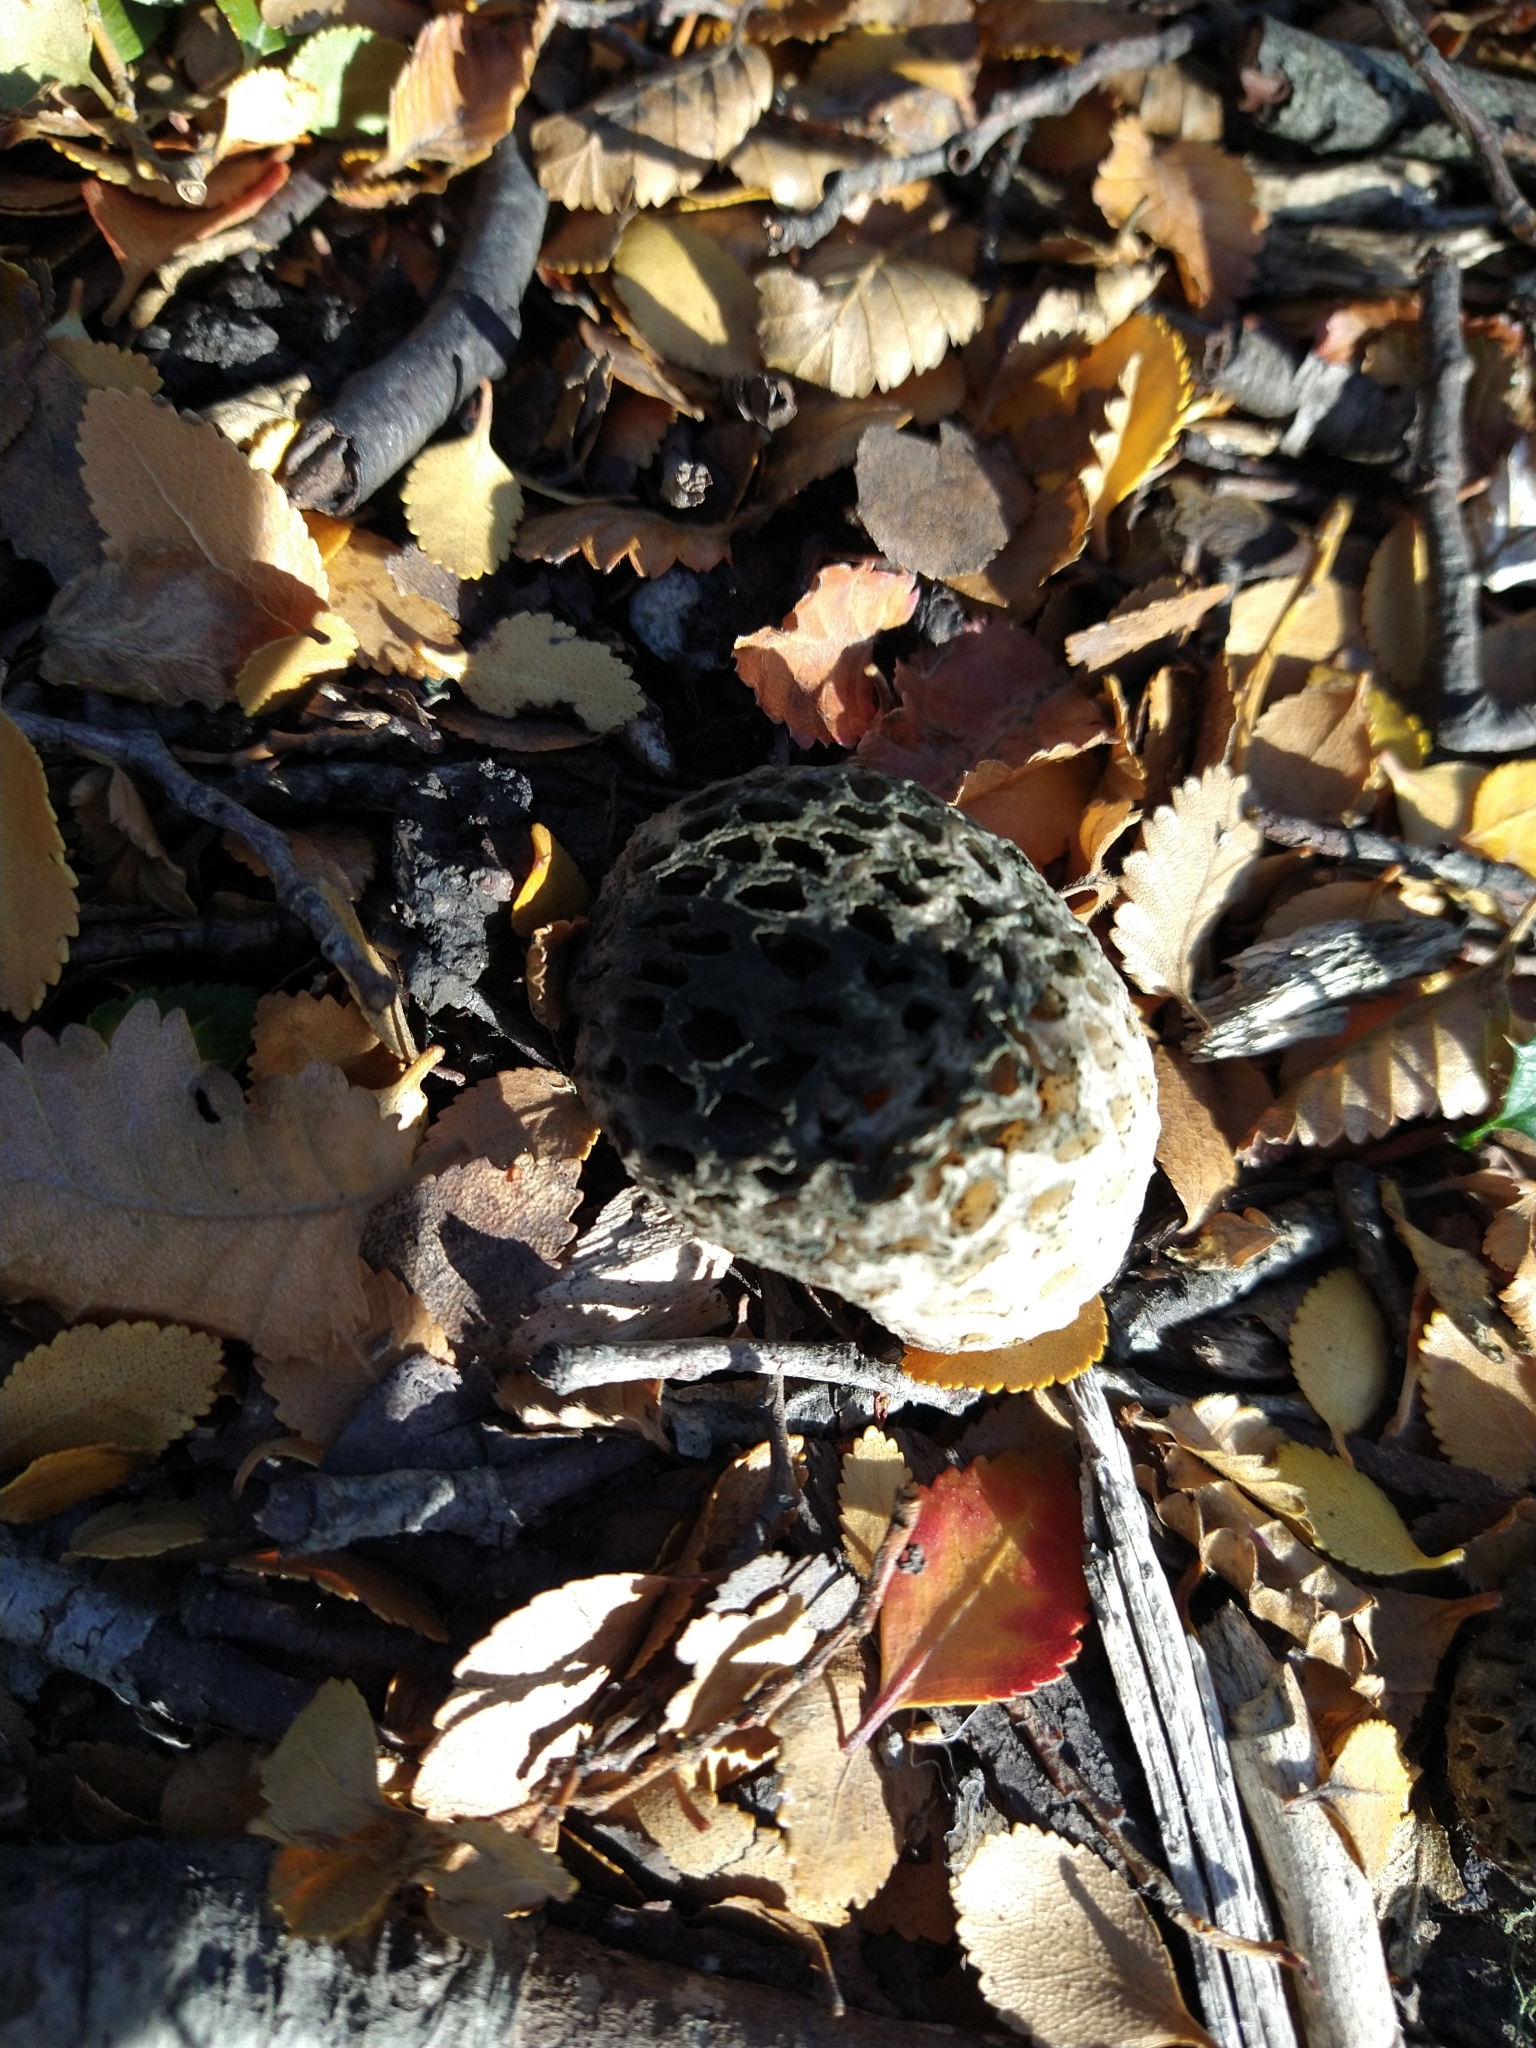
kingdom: Fungi
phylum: Ascomycota
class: Leotiomycetes
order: Cyttariales
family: Cyttariaceae
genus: Cyttaria
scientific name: Cyttaria hariotii
